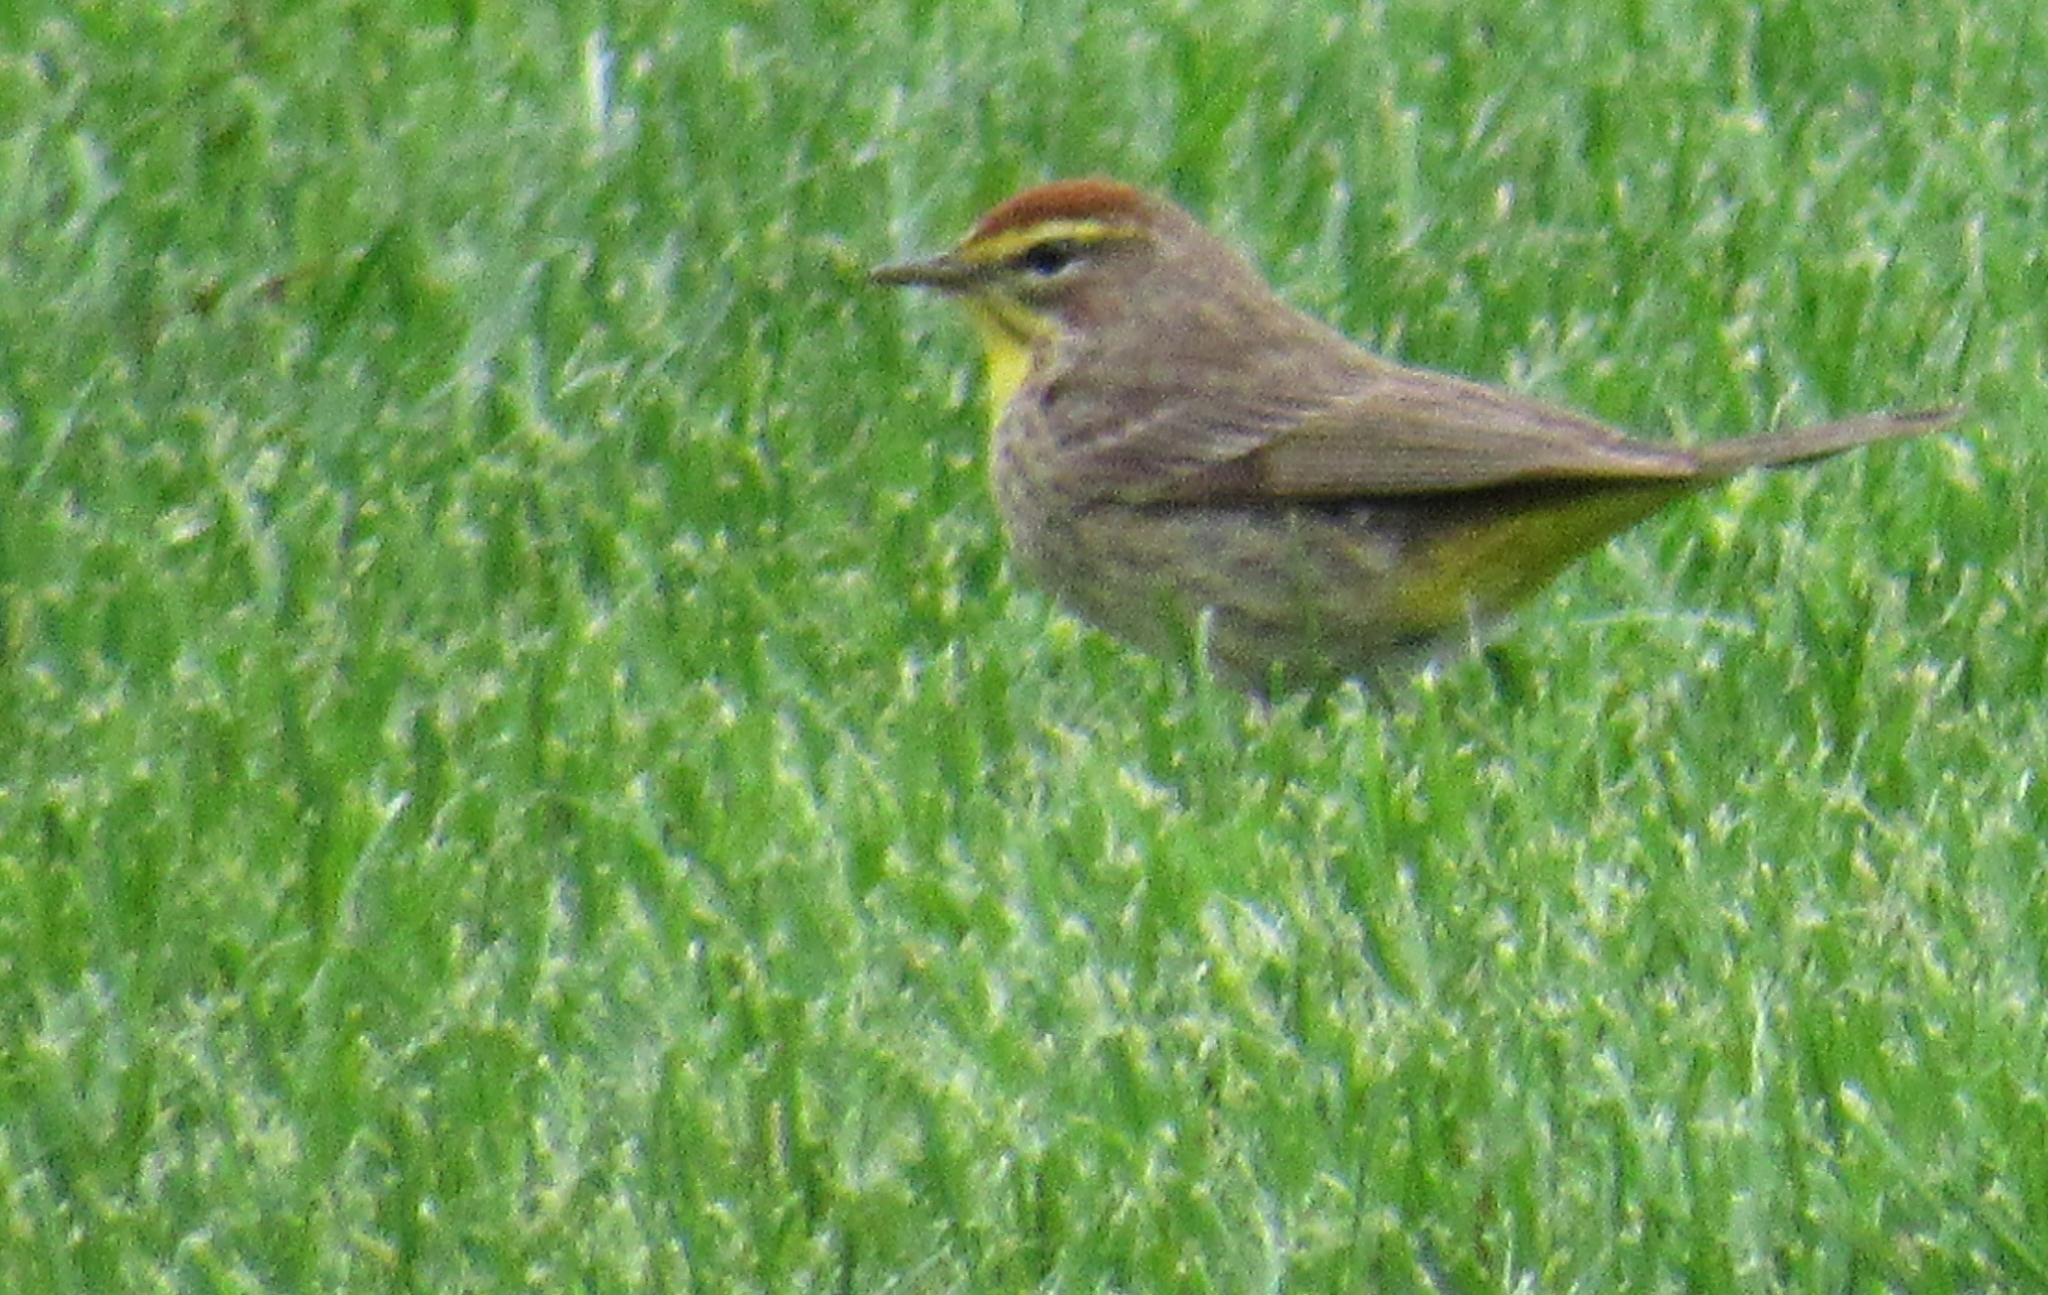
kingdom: Animalia
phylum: Chordata
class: Aves
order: Passeriformes
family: Parulidae
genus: Setophaga
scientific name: Setophaga palmarum
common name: Palm warbler
